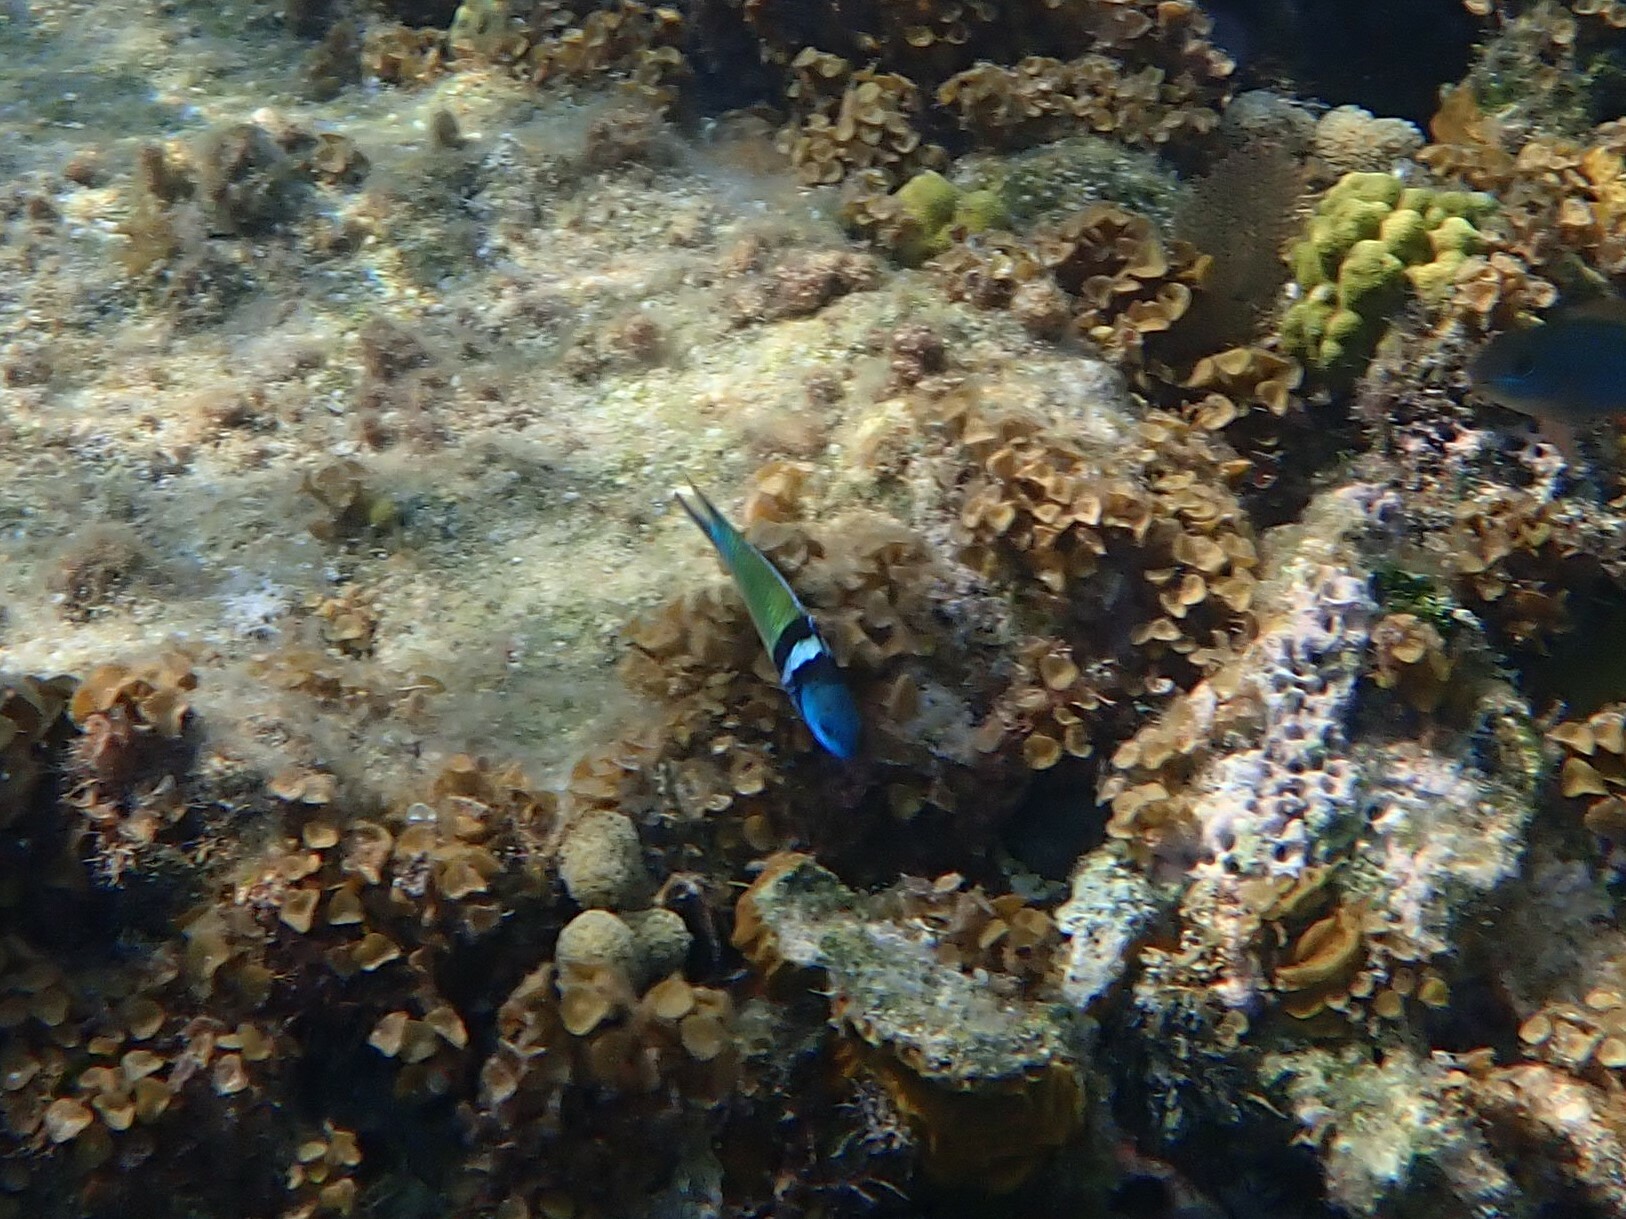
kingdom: Animalia
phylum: Chordata
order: Perciformes
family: Labridae
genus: Thalassoma
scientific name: Thalassoma bifasciatum
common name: Bluehead wrasse
